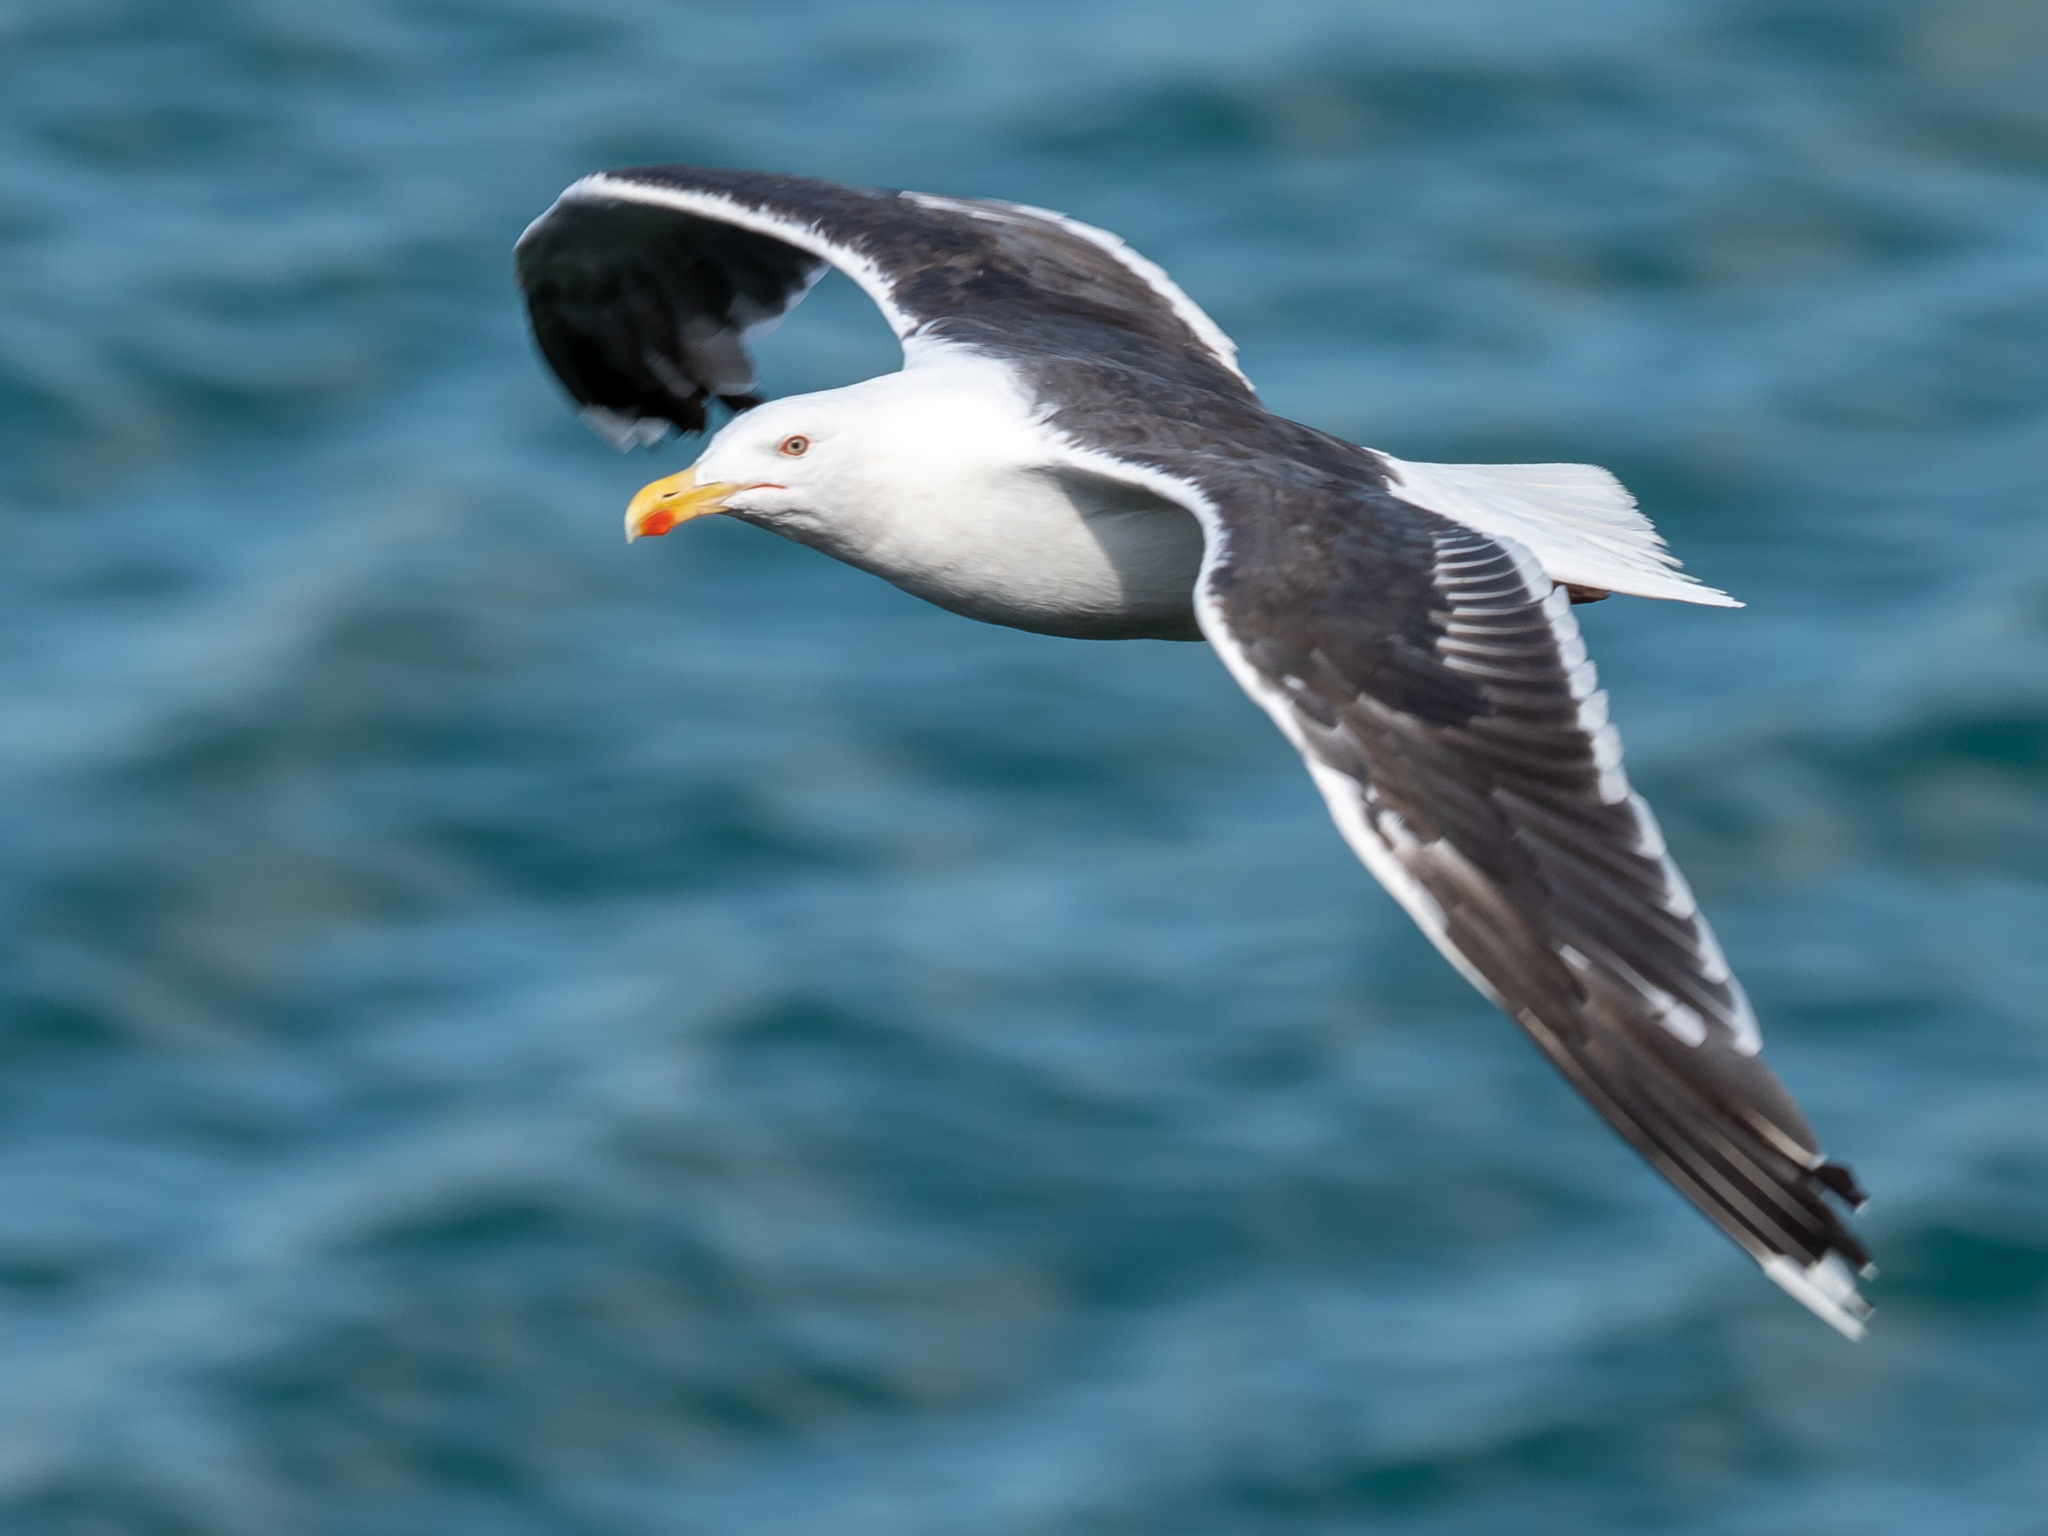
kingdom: Animalia
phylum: Chordata
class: Aves
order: Charadriiformes
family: Laridae
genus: Larus
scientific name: Larus marinus
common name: Great black-backed gull
